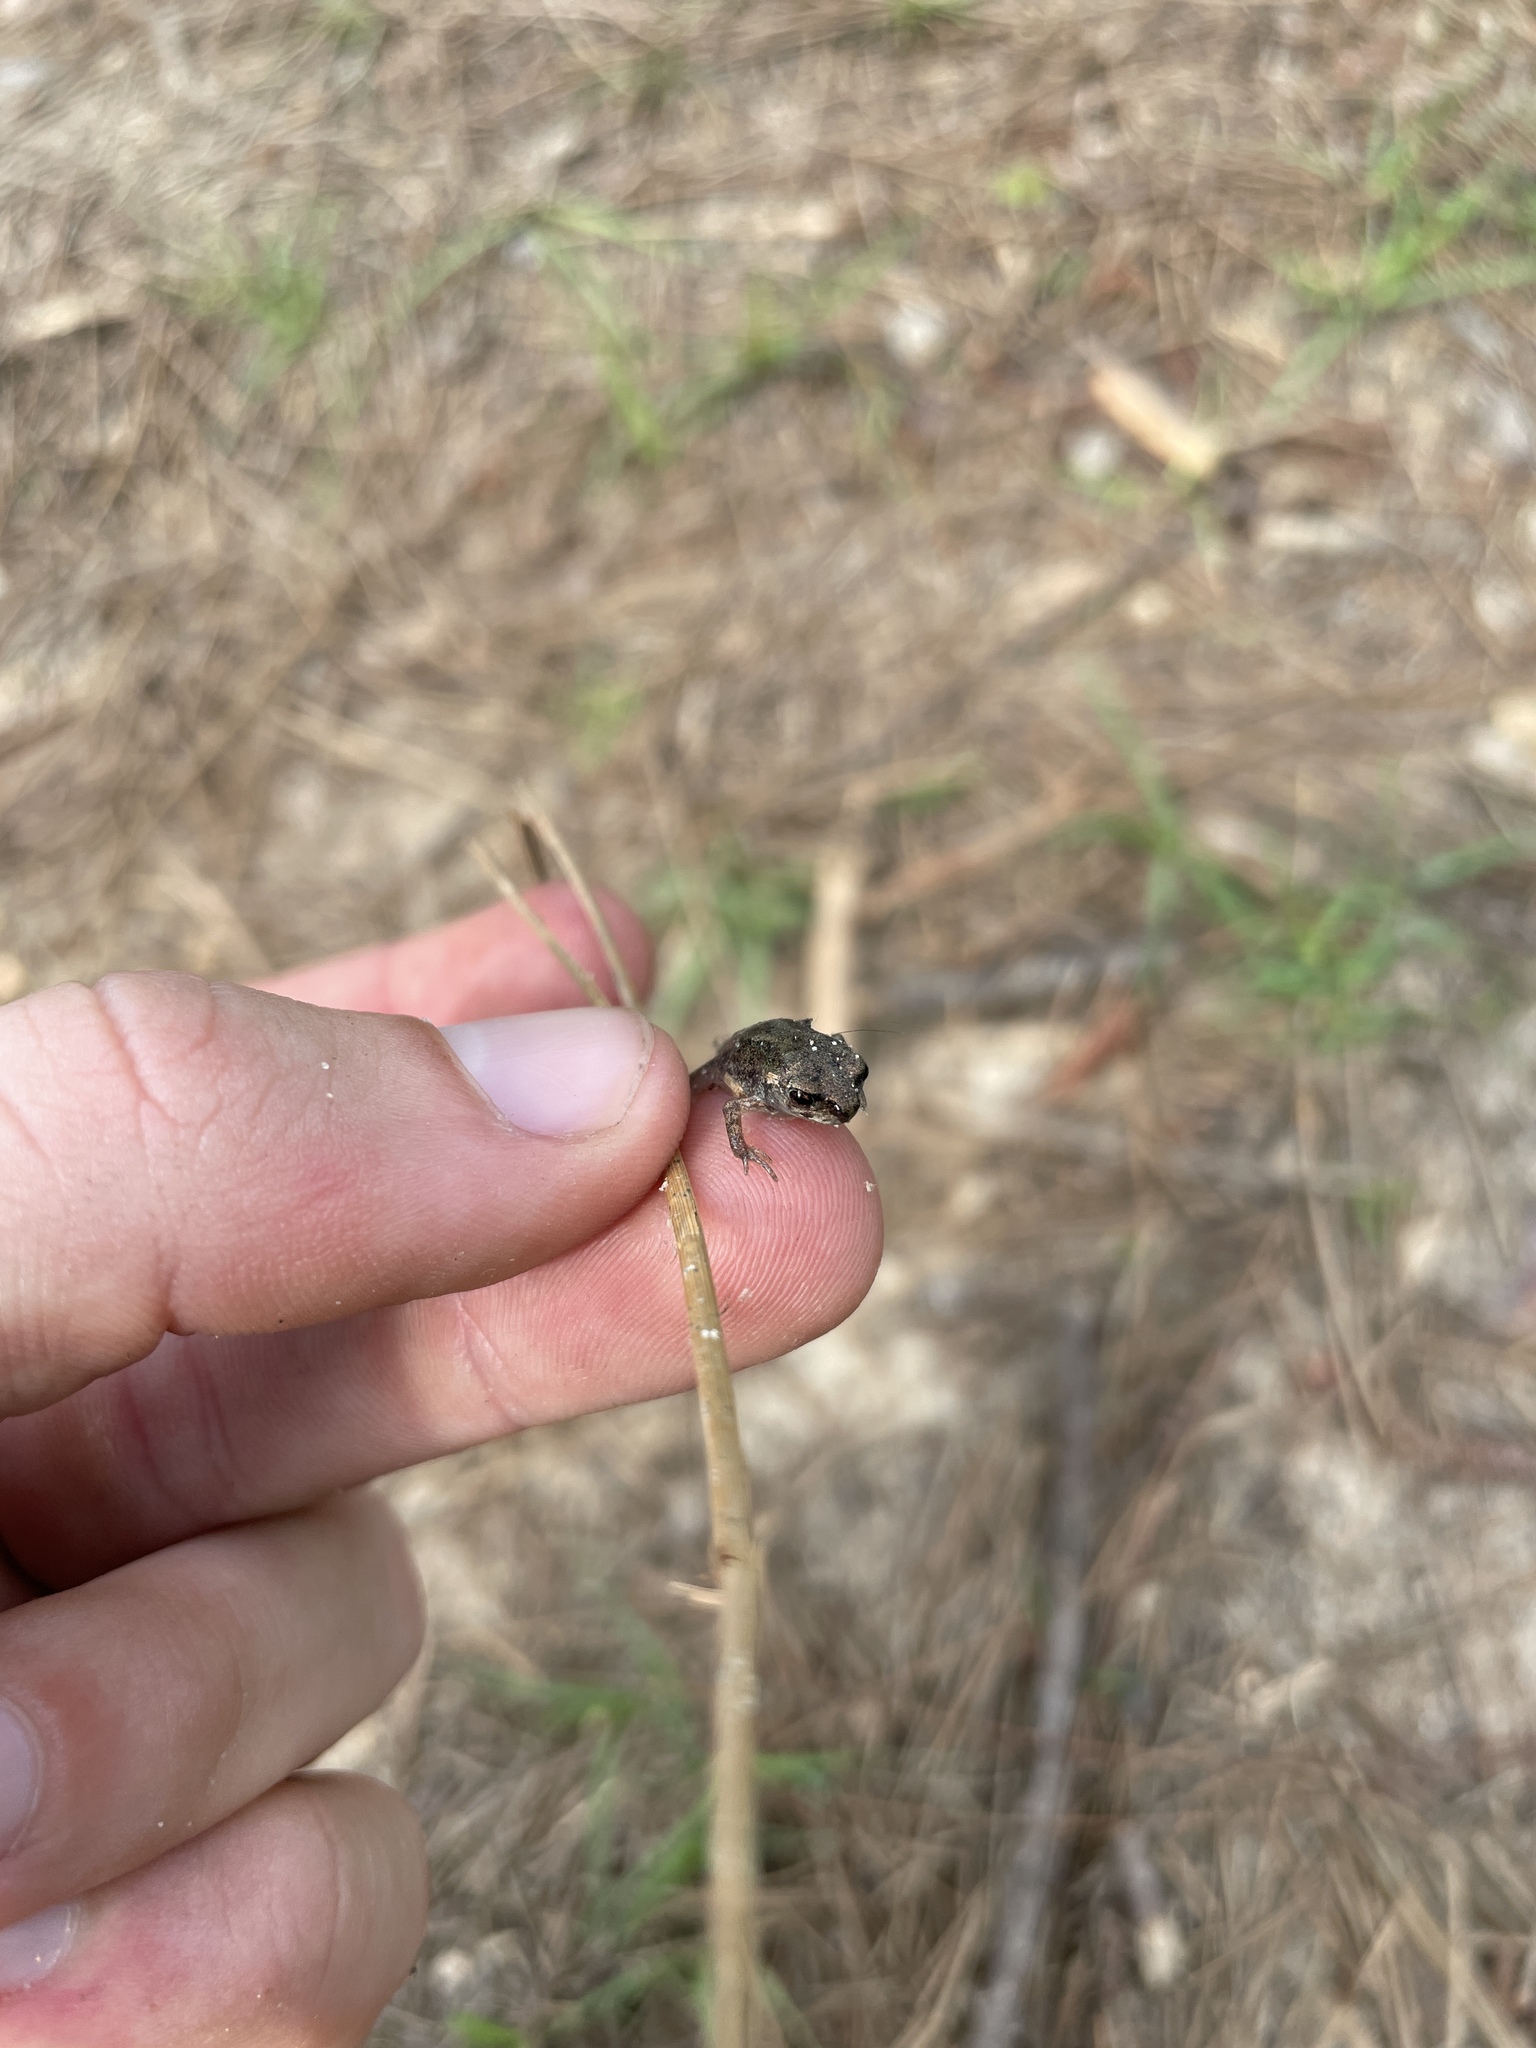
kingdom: Animalia
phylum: Chordata
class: Amphibia
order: Anura
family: Scaphiopodidae
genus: Scaphiopus
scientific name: Scaphiopus holbrookii
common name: Eastern spadefoot toad
